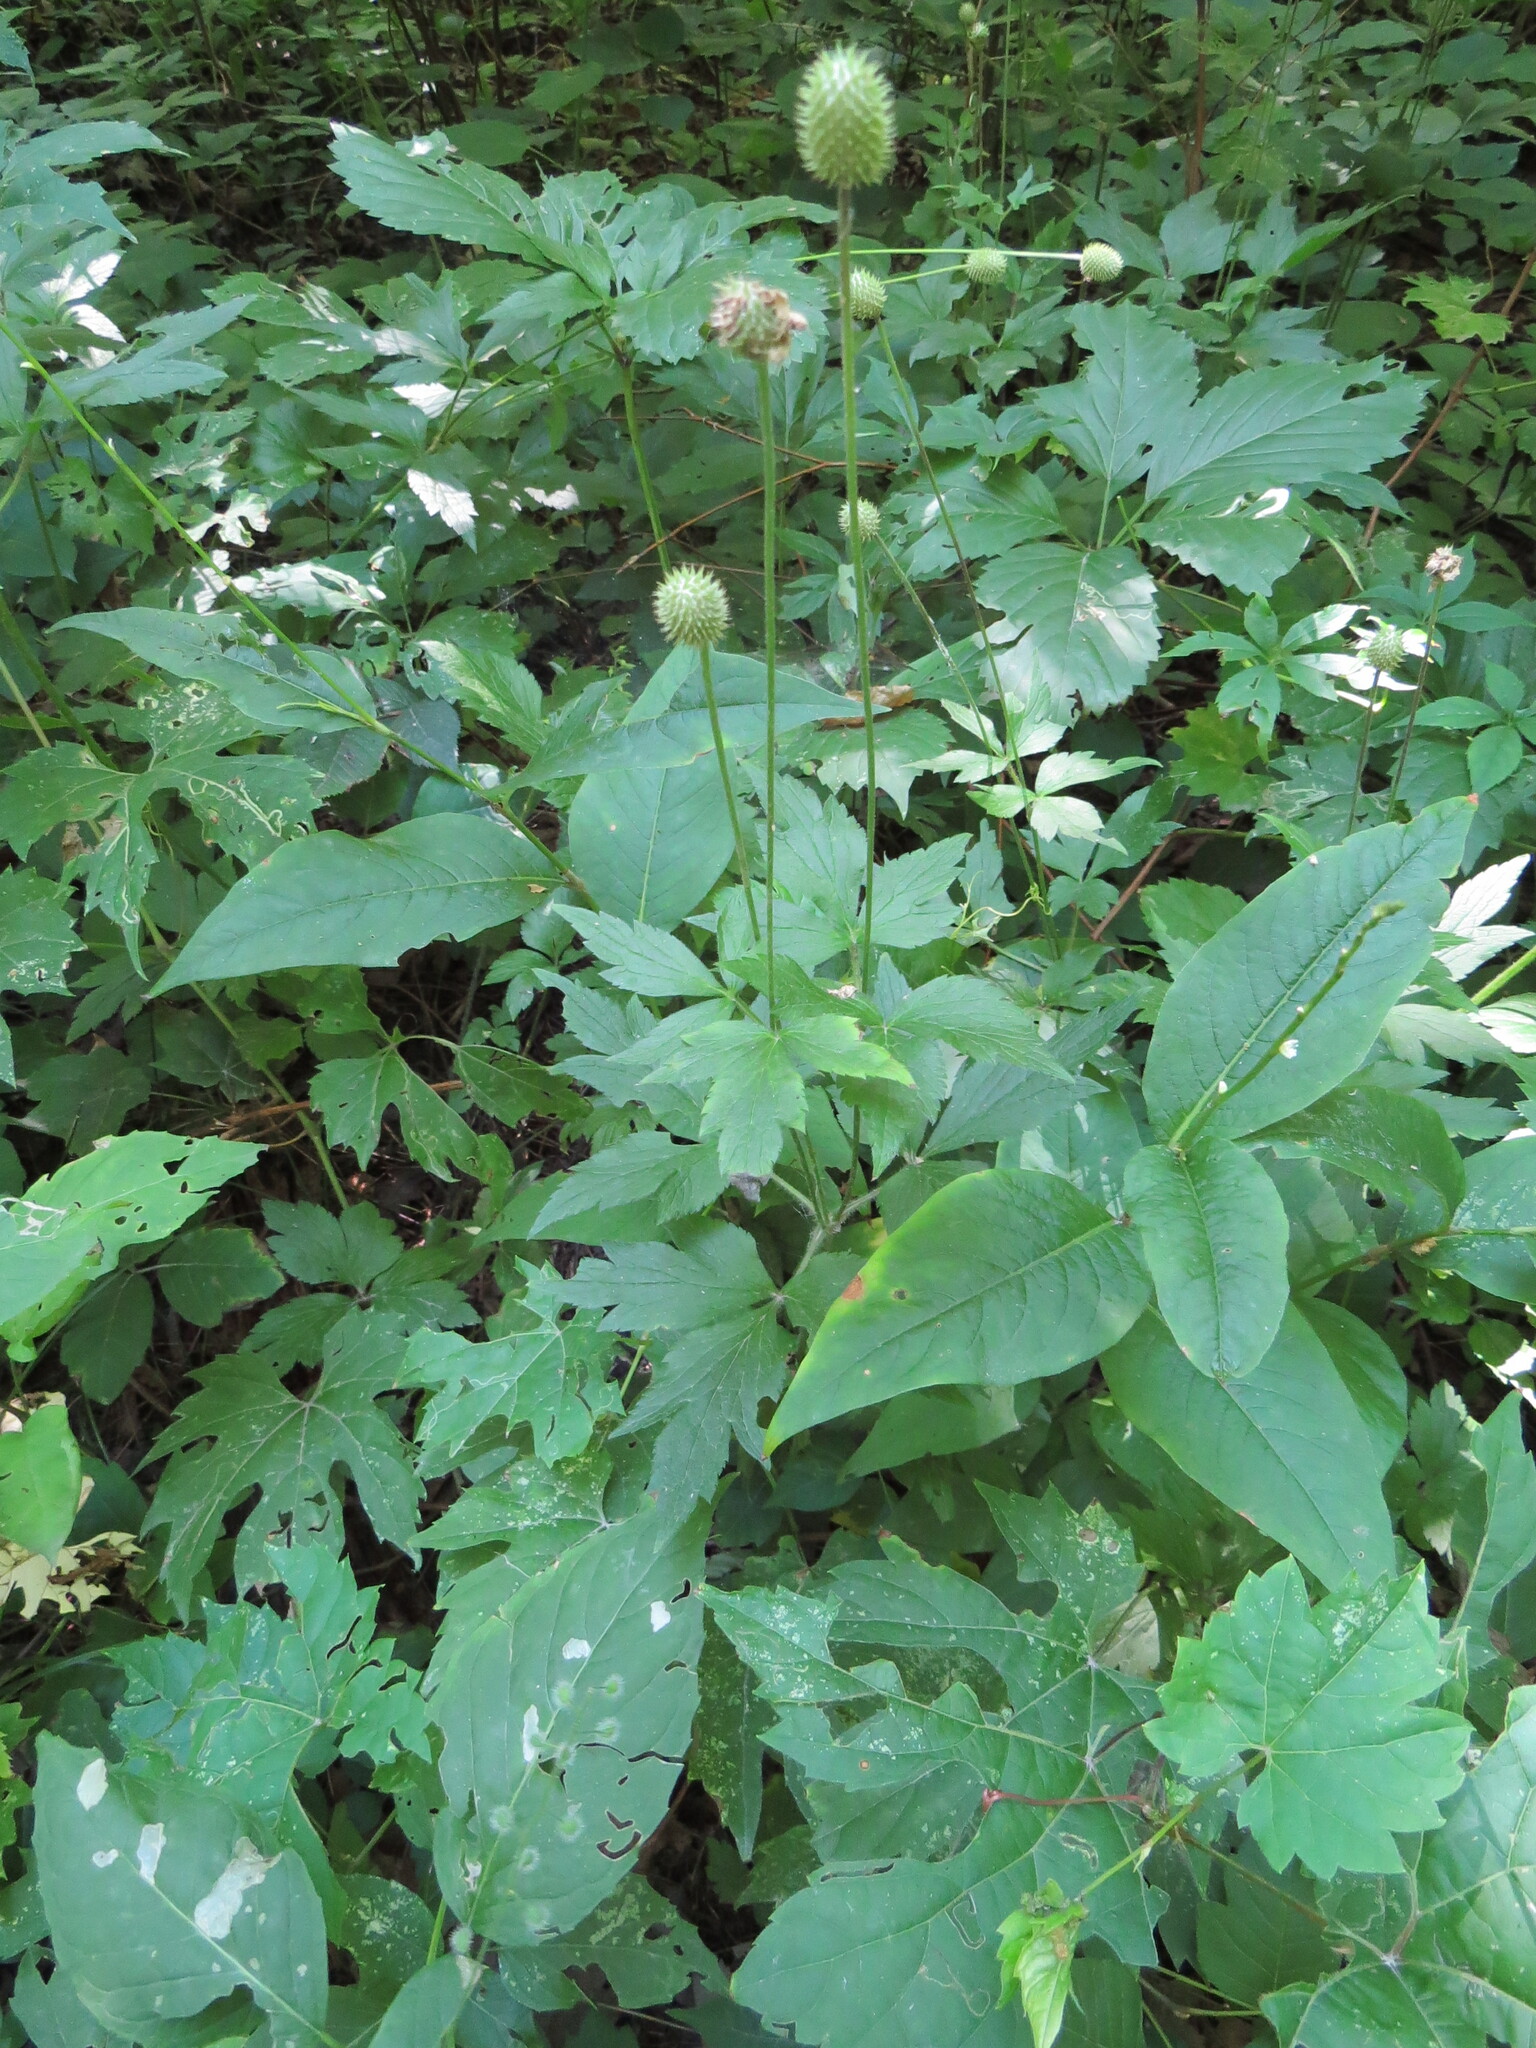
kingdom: Plantae
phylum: Tracheophyta
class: Magnoliopsida
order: Ranunculales
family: Ranunculaceae
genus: Anemone
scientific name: Anemone virginiana
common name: Tall anemone
